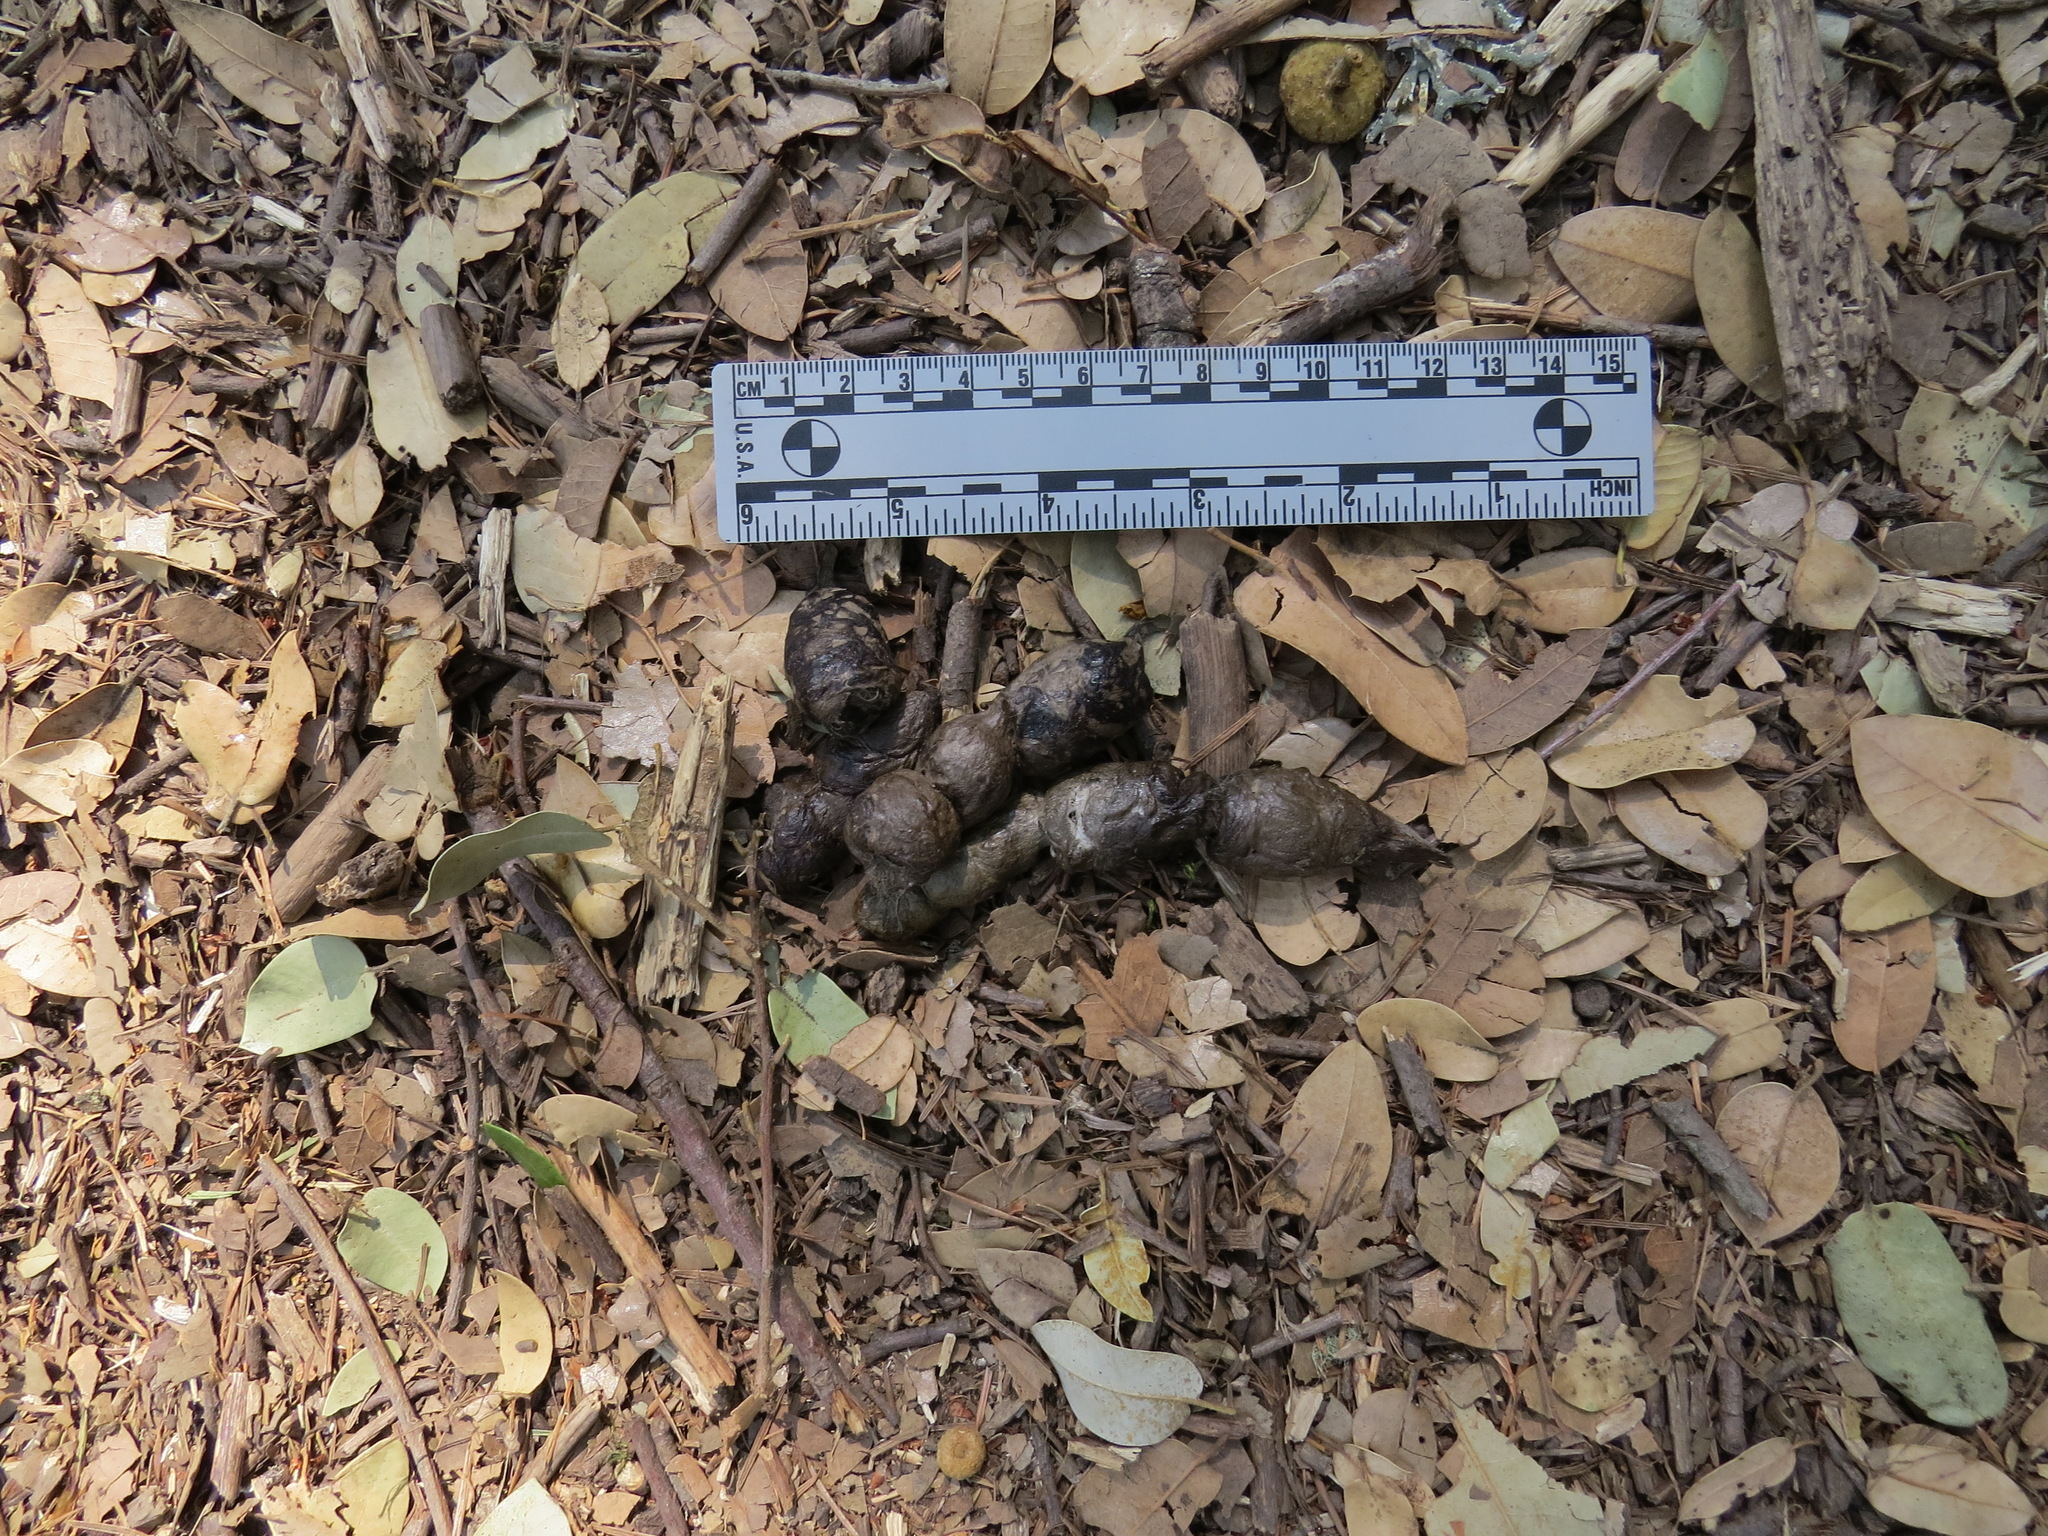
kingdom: Animalia
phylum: Chordata
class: Mammalia
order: Carnivora
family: Felidae
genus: Lynx
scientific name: Lynx rufus
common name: Bobcat
